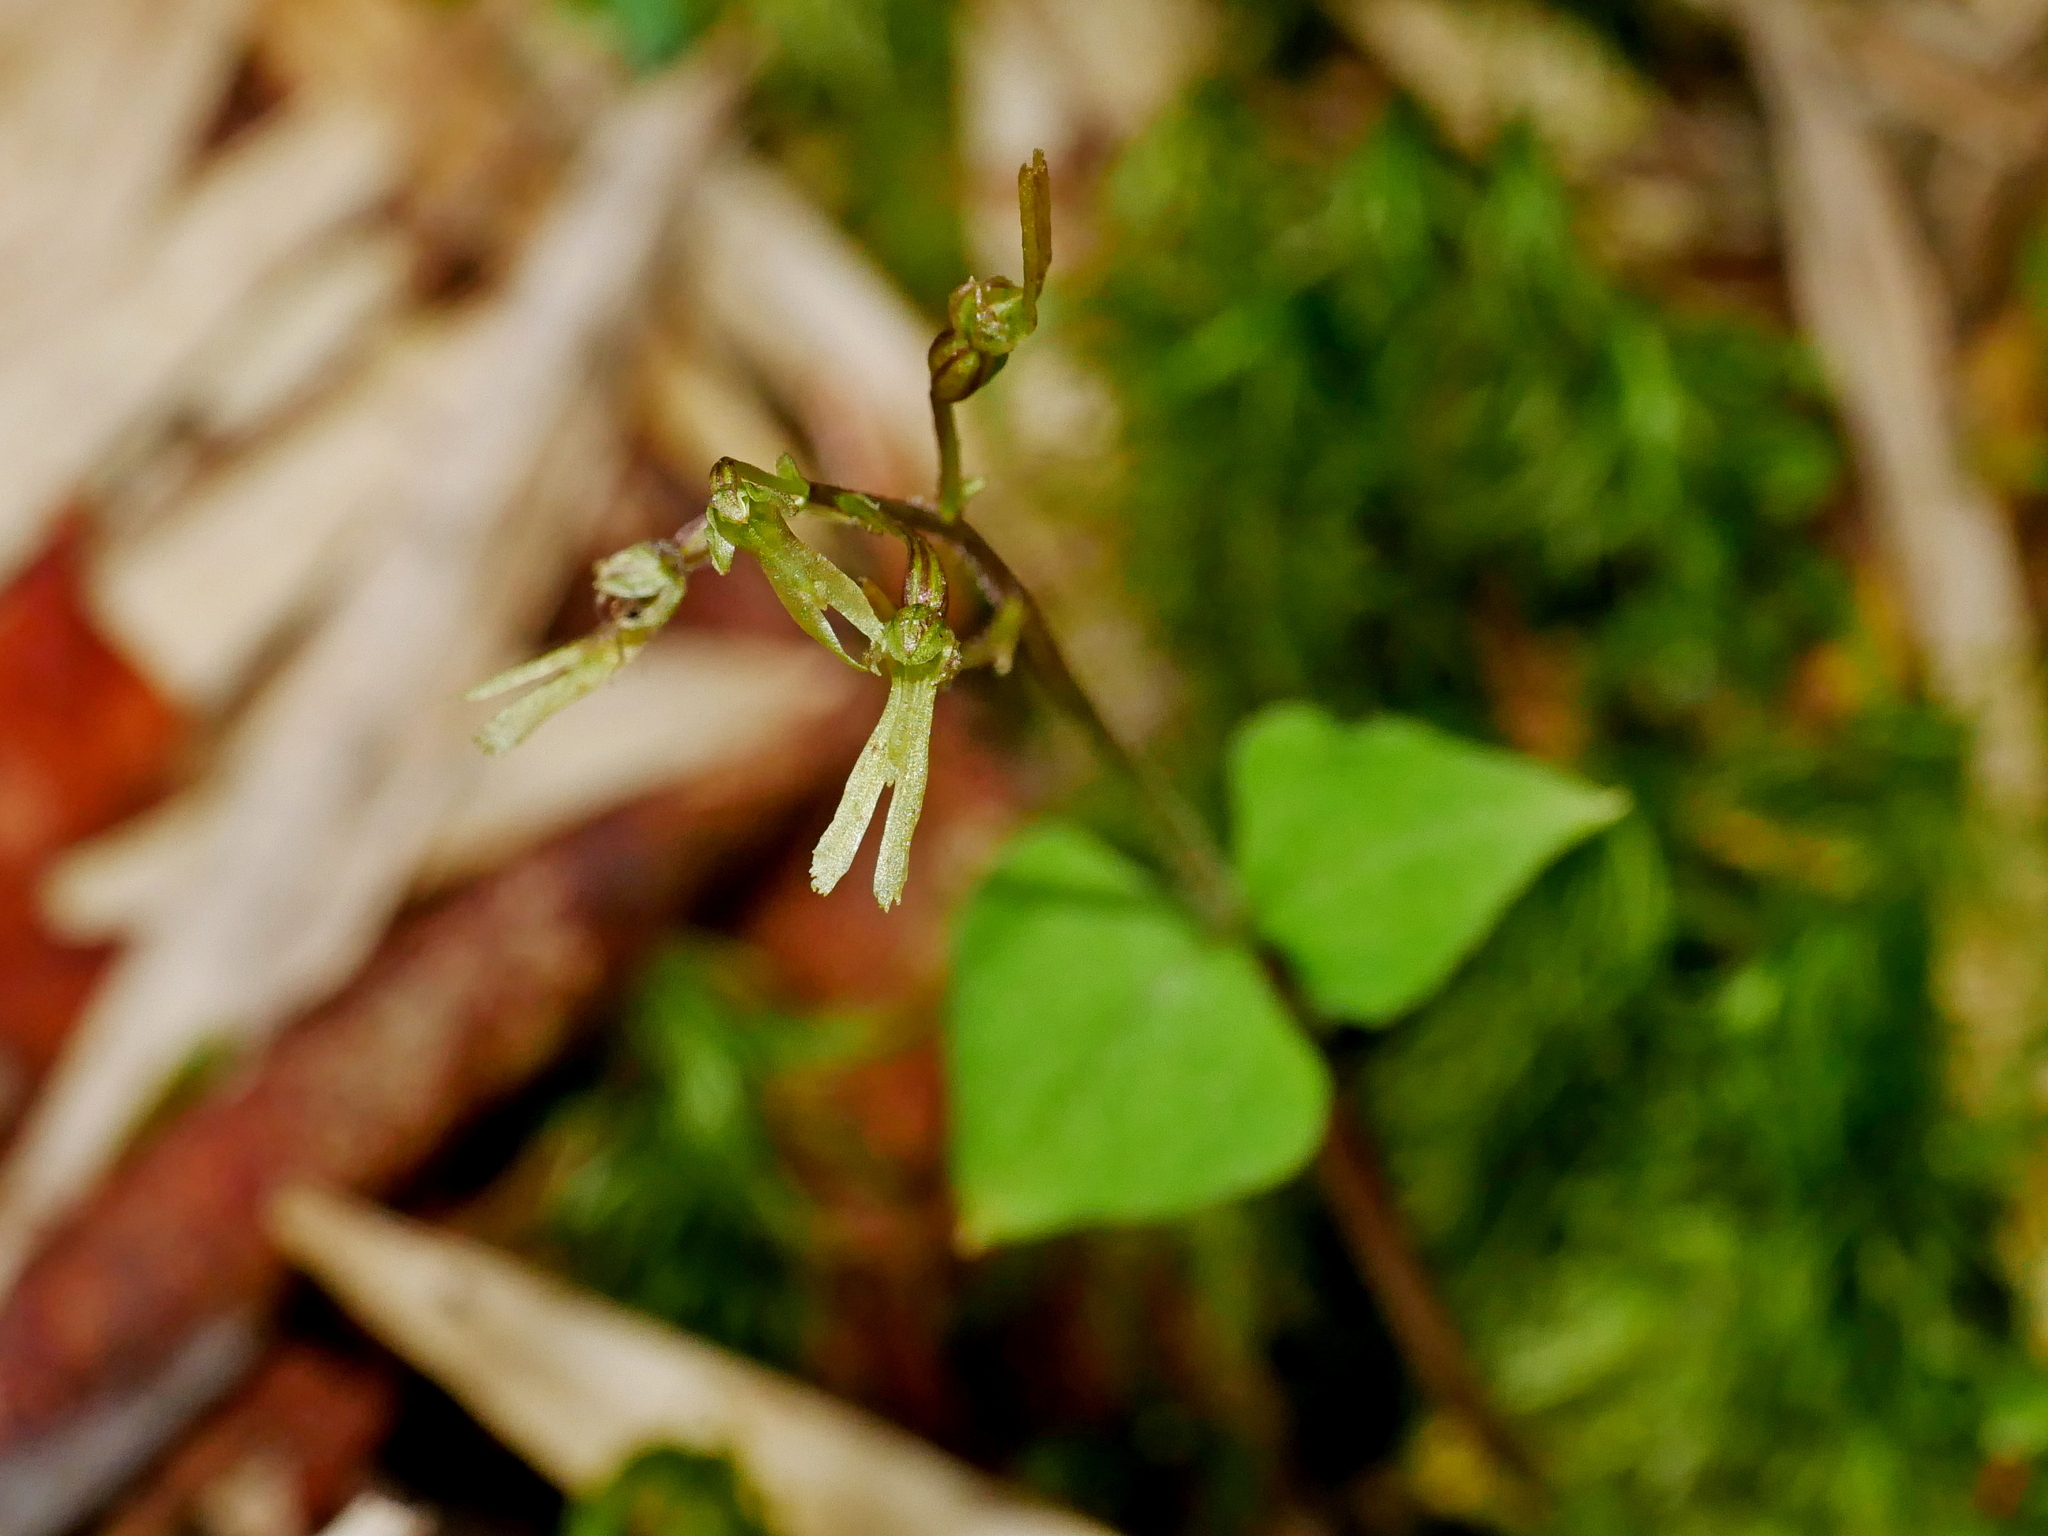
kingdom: Plantae
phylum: Tracheophyta
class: Liliopsida
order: Asparagales
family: Orchidaceae
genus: Neottia
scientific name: Neottia atayalica
